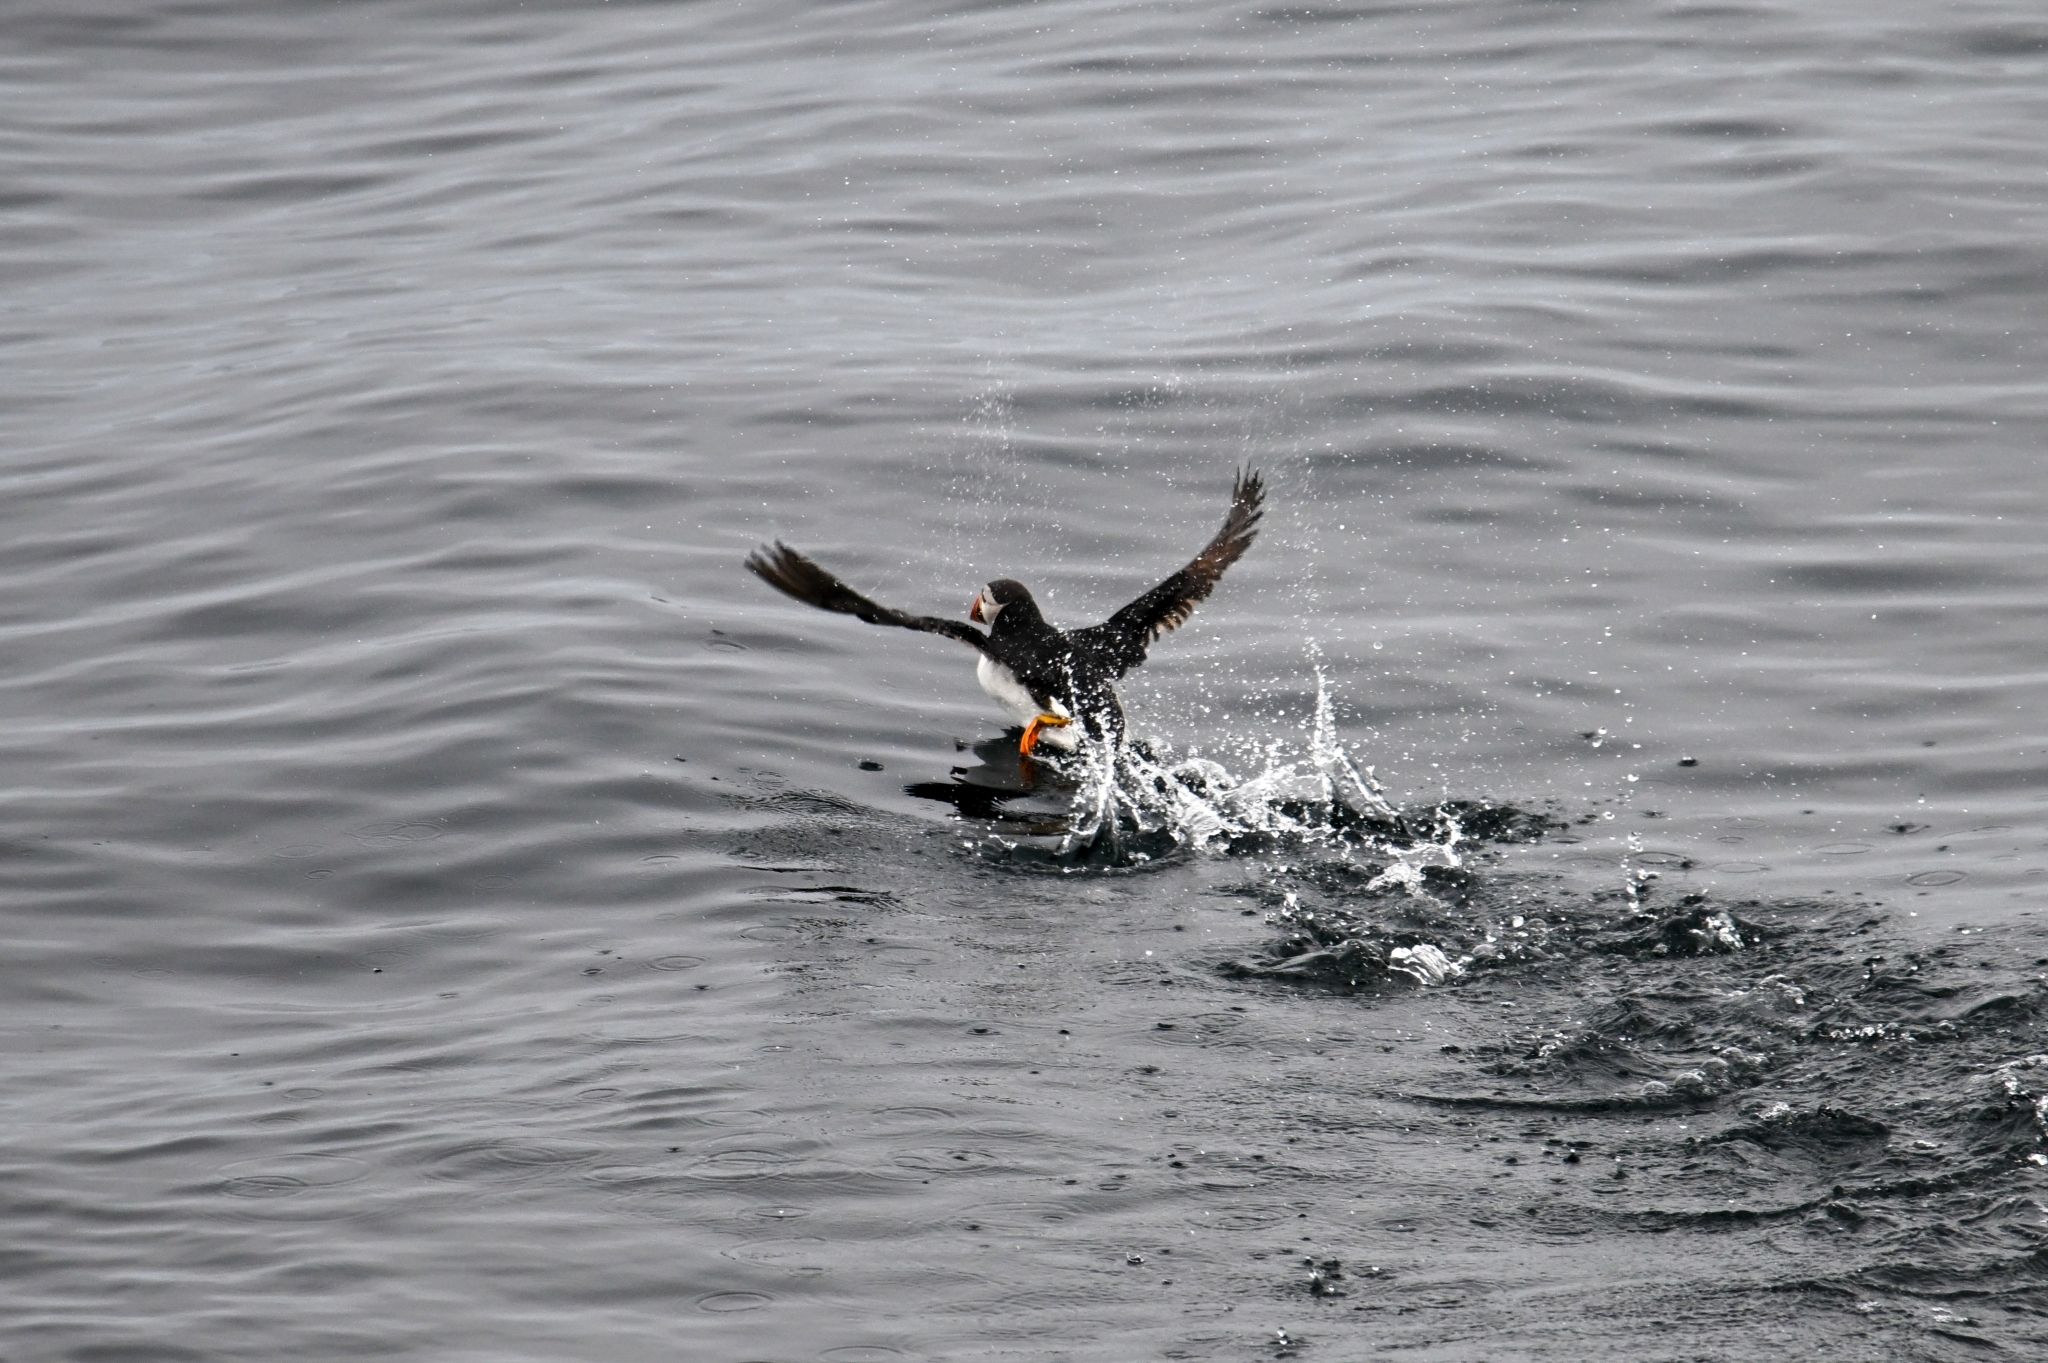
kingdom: Animalia
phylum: Chordata
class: Aves
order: Charadriiformes
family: Alcidae
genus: Fratercula
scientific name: Fratercula arctica
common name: Atlantic puffin
